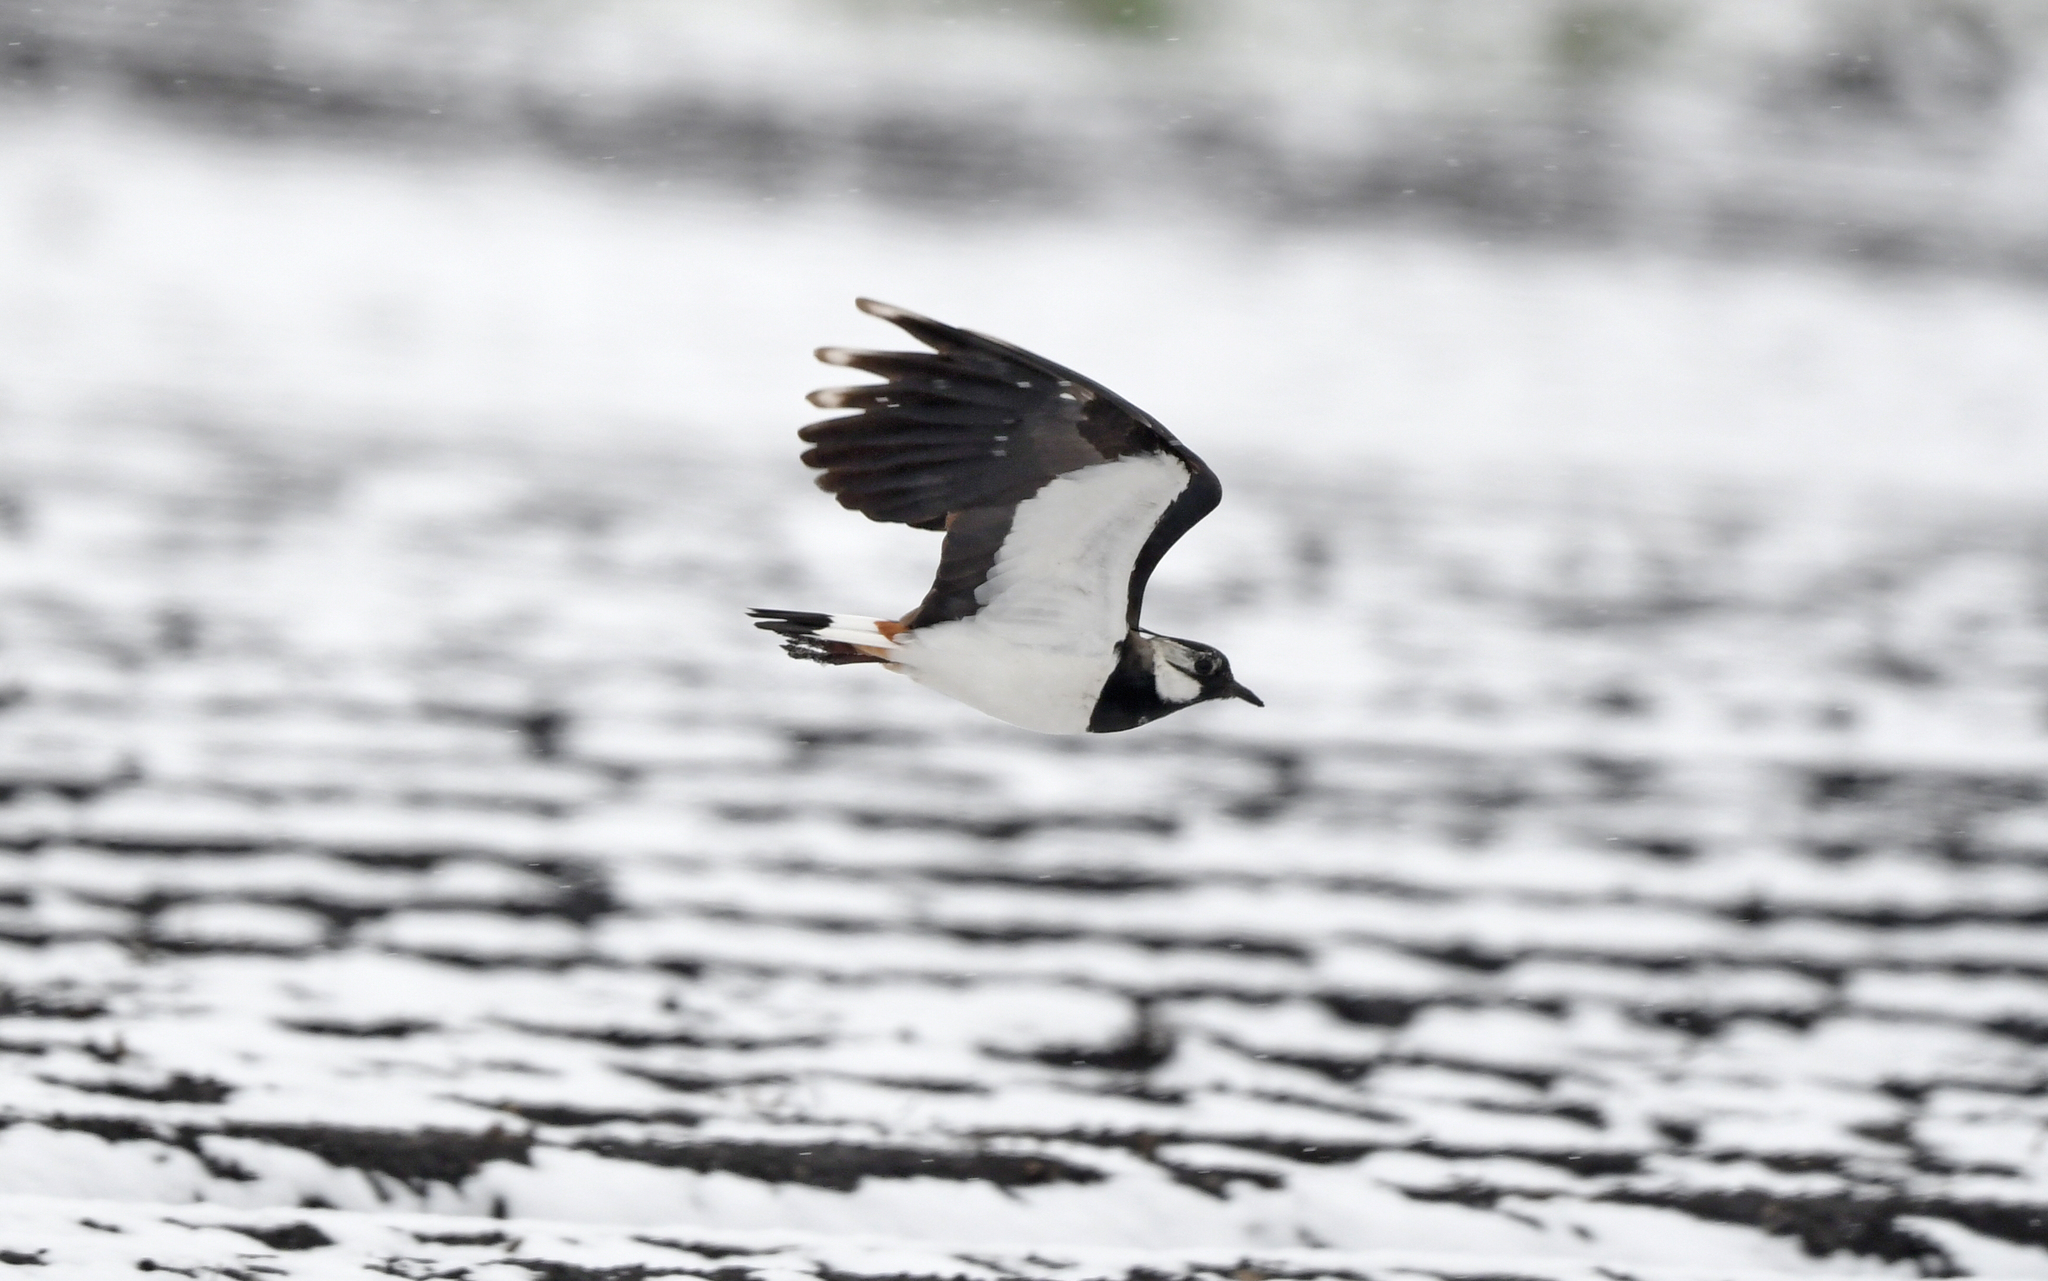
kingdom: Animalia
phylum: Chordata
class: Aves
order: Charadriiformes
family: Charadriidae
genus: Vanellus
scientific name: Vanellus vanellus
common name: Northern lapwing
